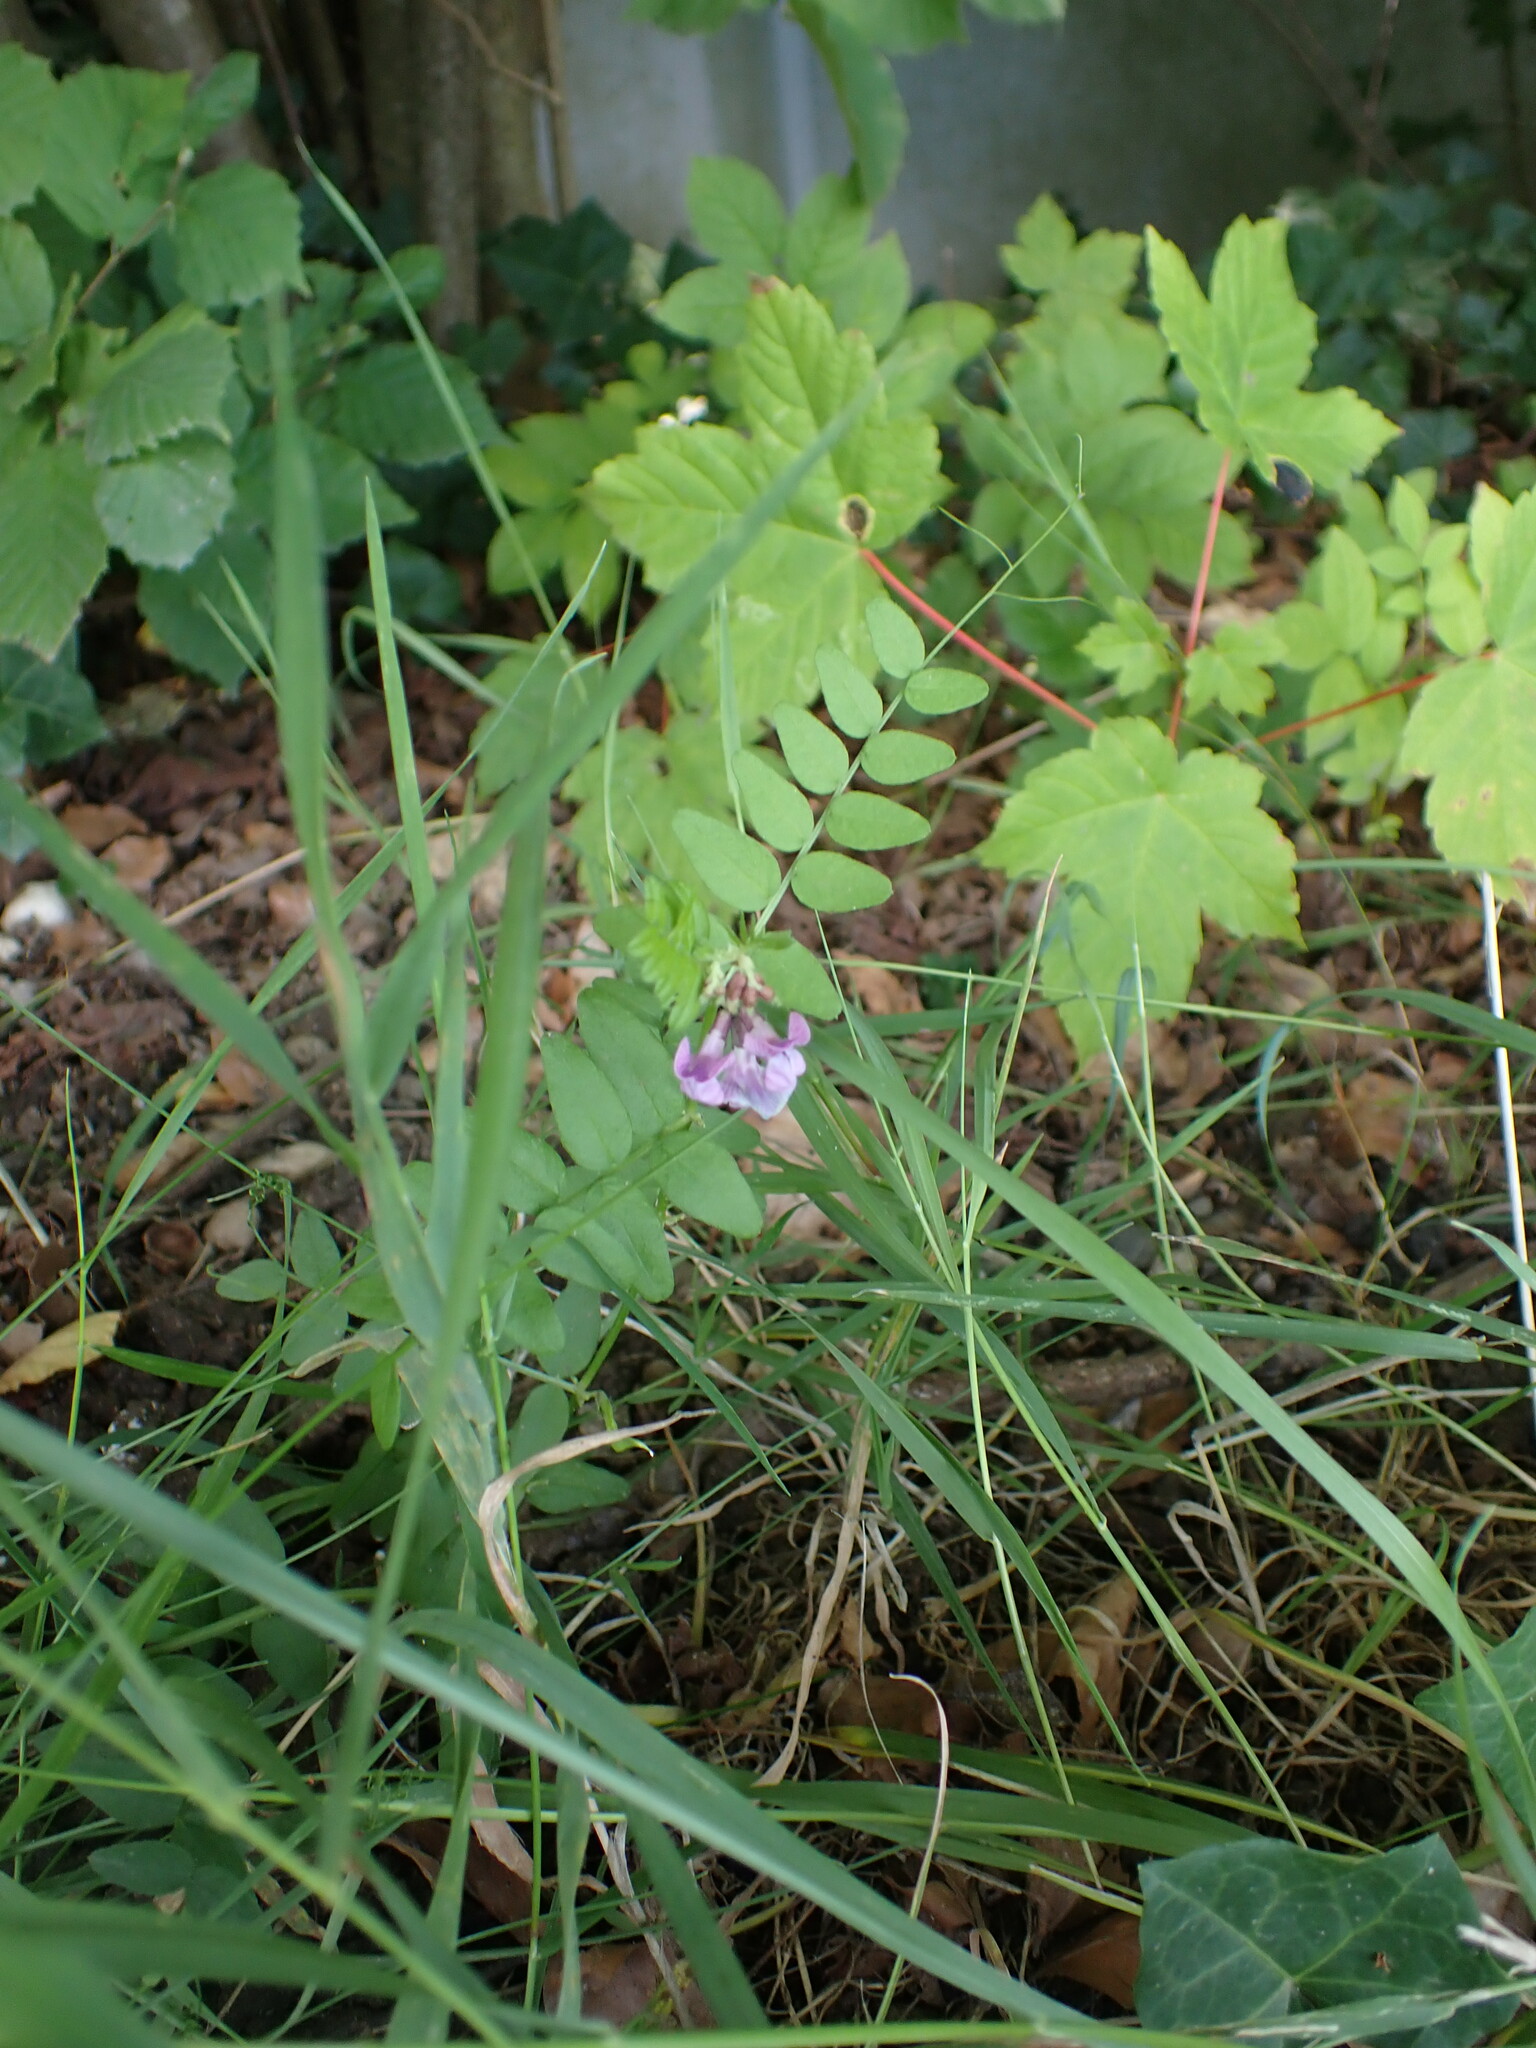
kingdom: Plantae
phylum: Tracheophyta
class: Magnoliopsida
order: Fabales
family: Fabaceae
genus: Vicia
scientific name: Vicia sepium
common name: Bush vetch
